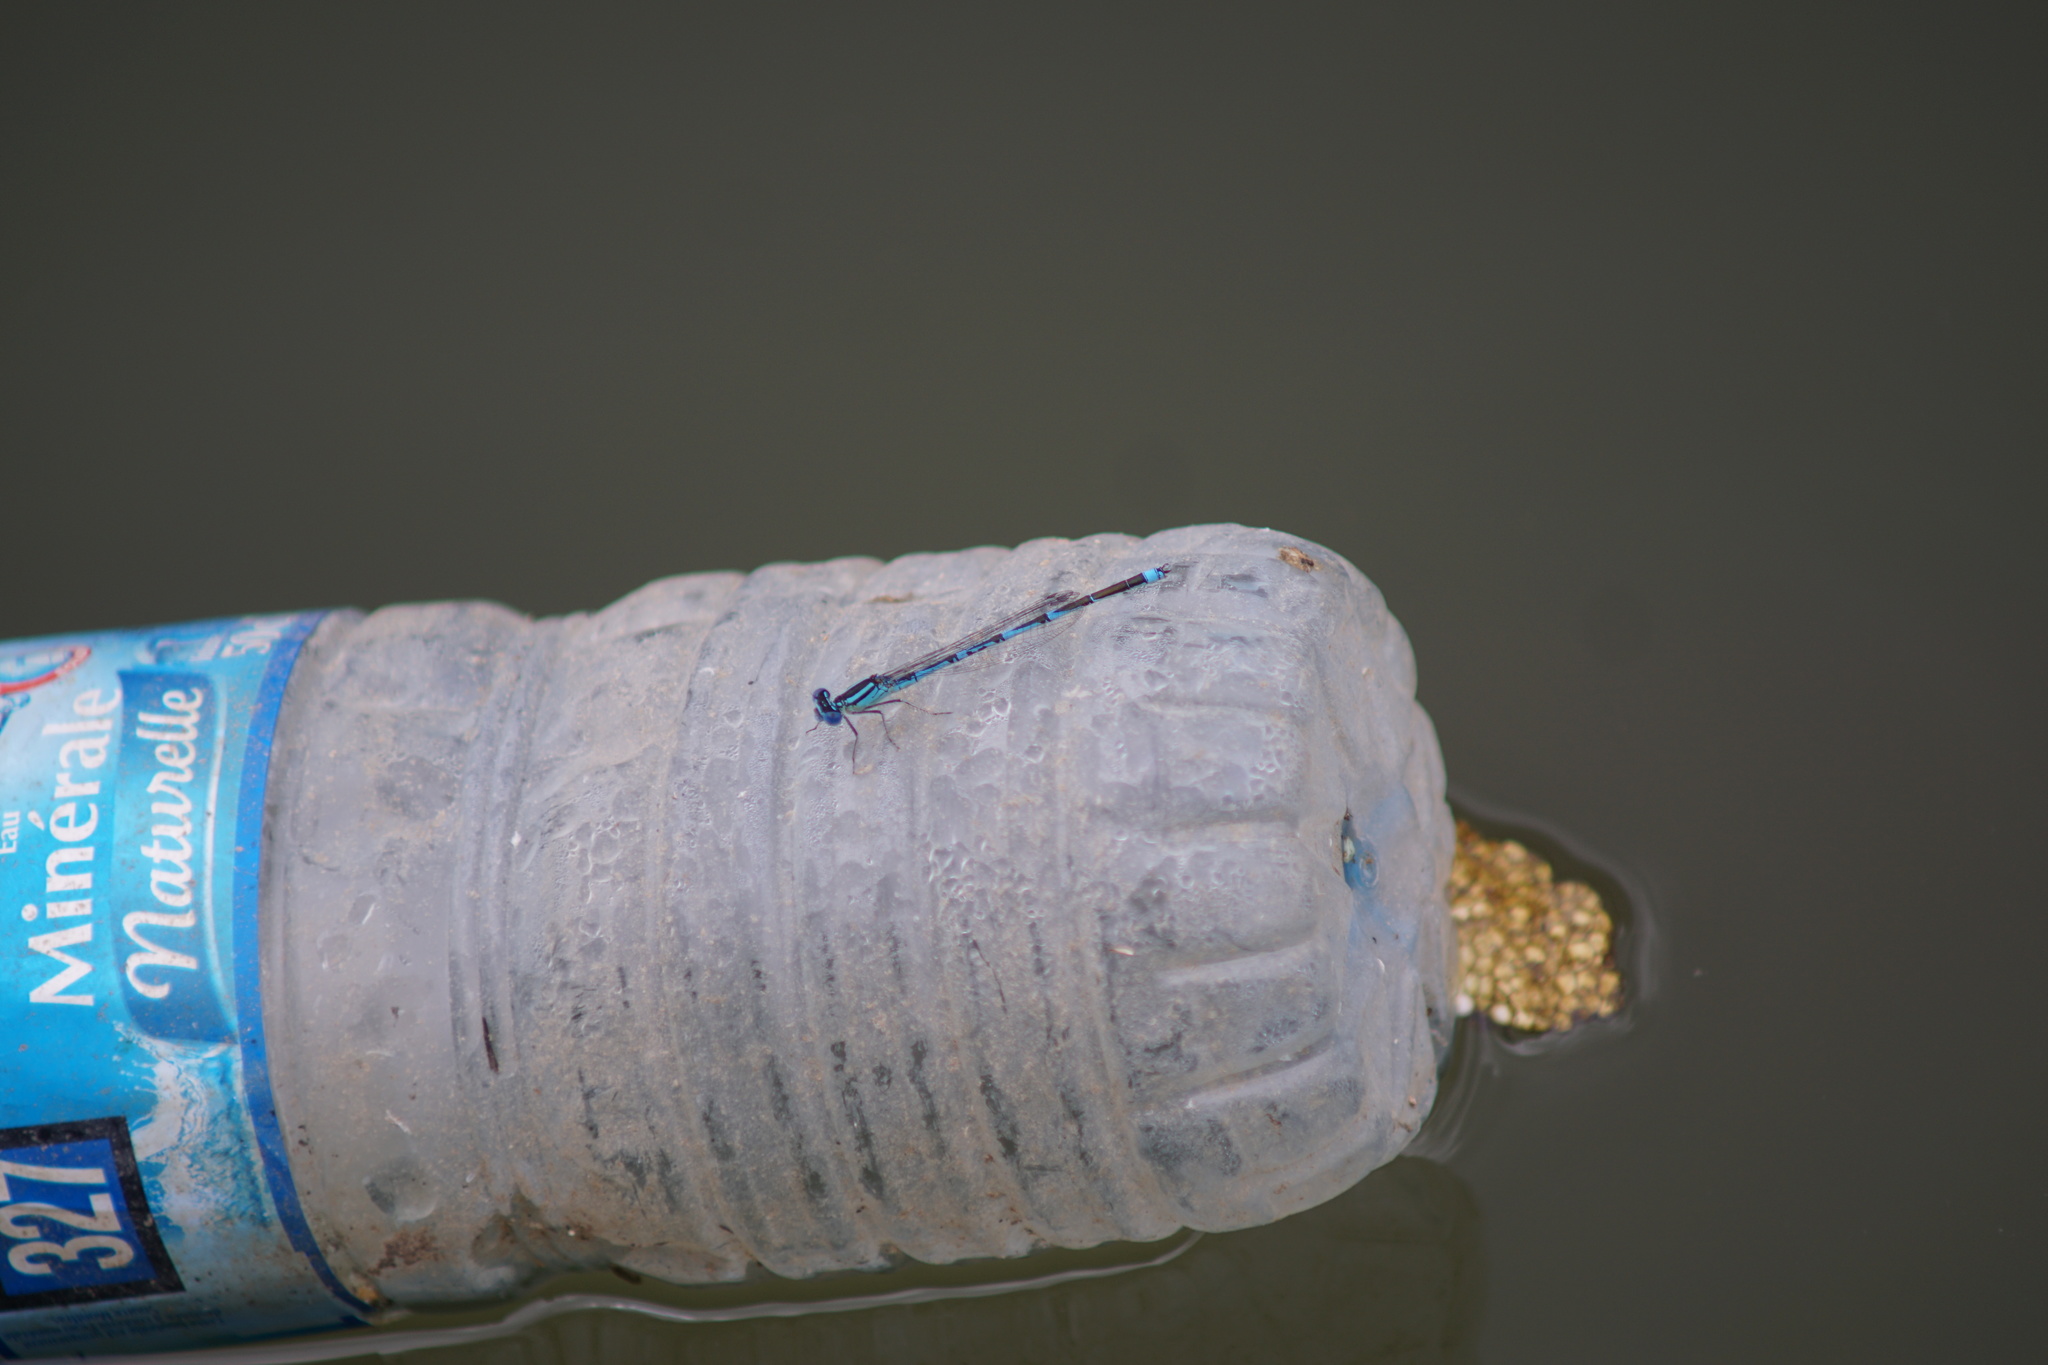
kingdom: Animalia
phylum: Arthropoda
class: Insecta
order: Odonata
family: Coenagrionidae
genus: Erythromma
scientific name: Erythromma lindenii
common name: Blue-eye
